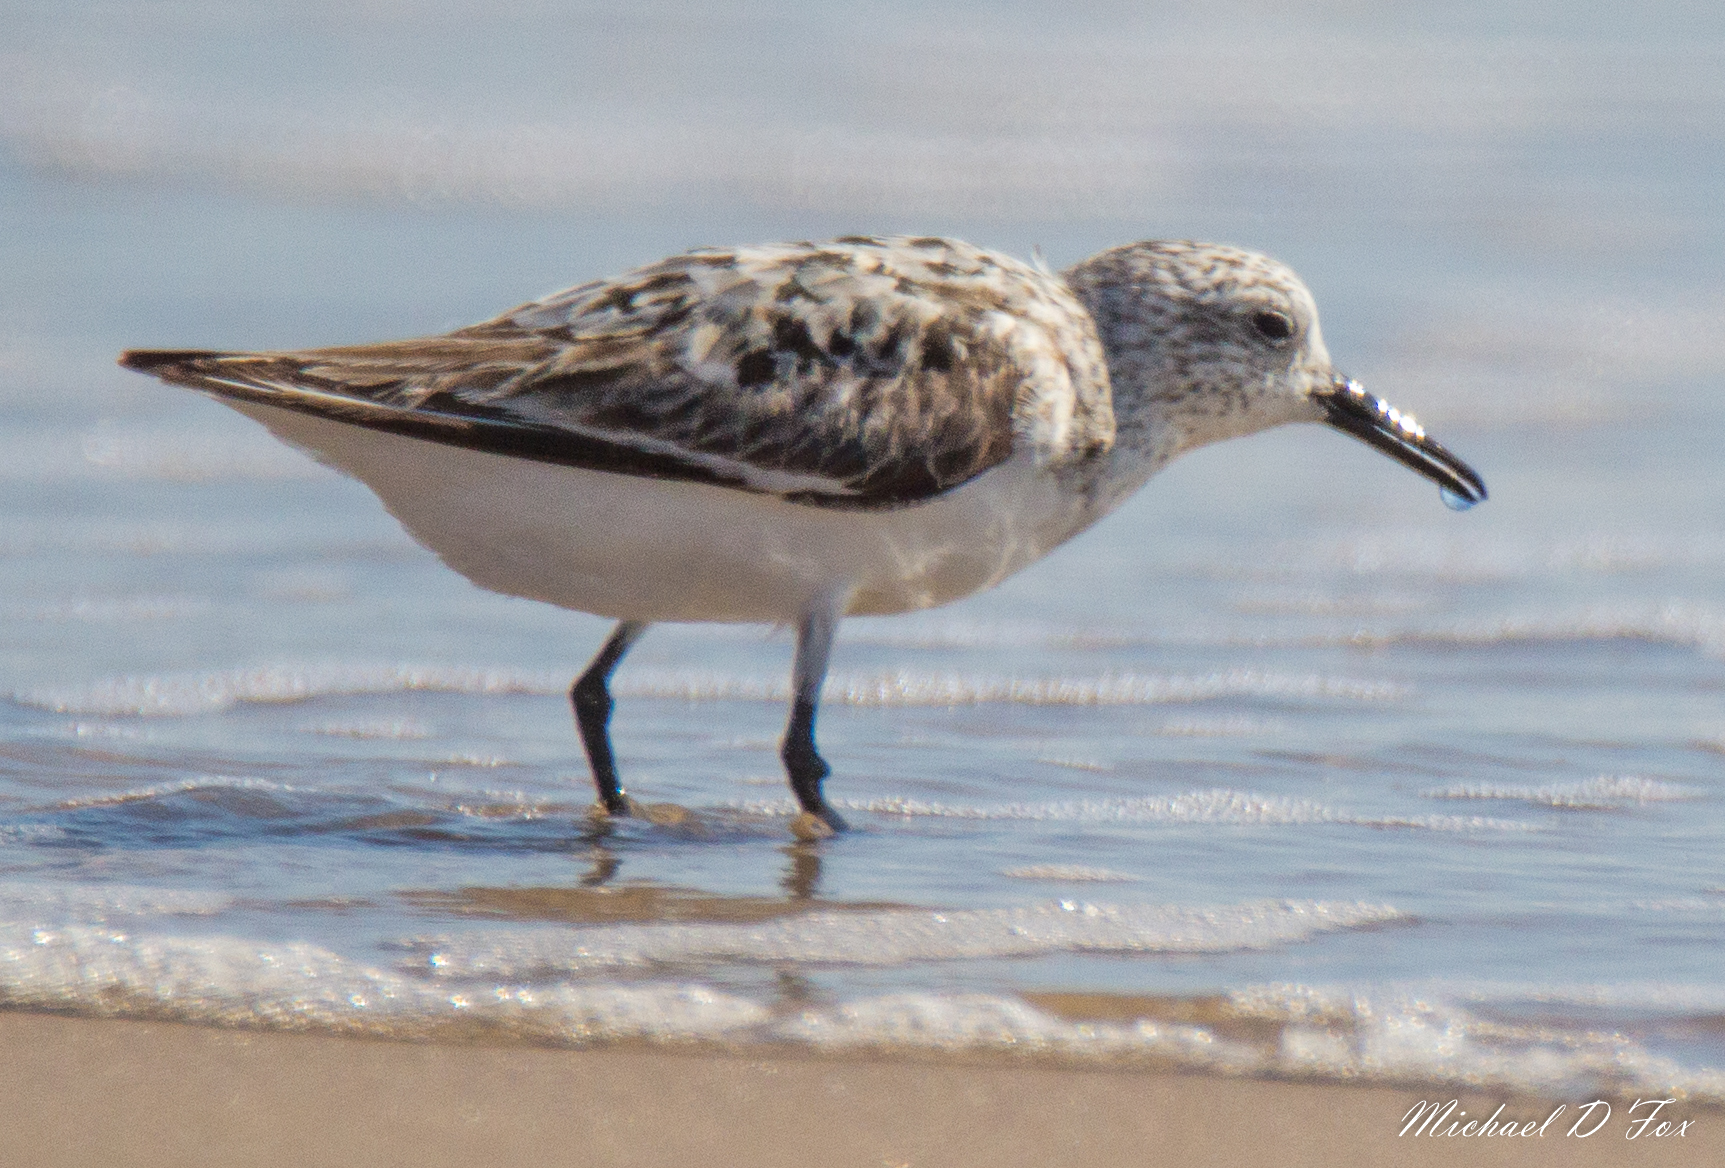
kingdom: Animalia
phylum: Chordata
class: Aves
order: Charadriiformes
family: Scolopacidae
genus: Calidris
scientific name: Calidris alba
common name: Sanderling
